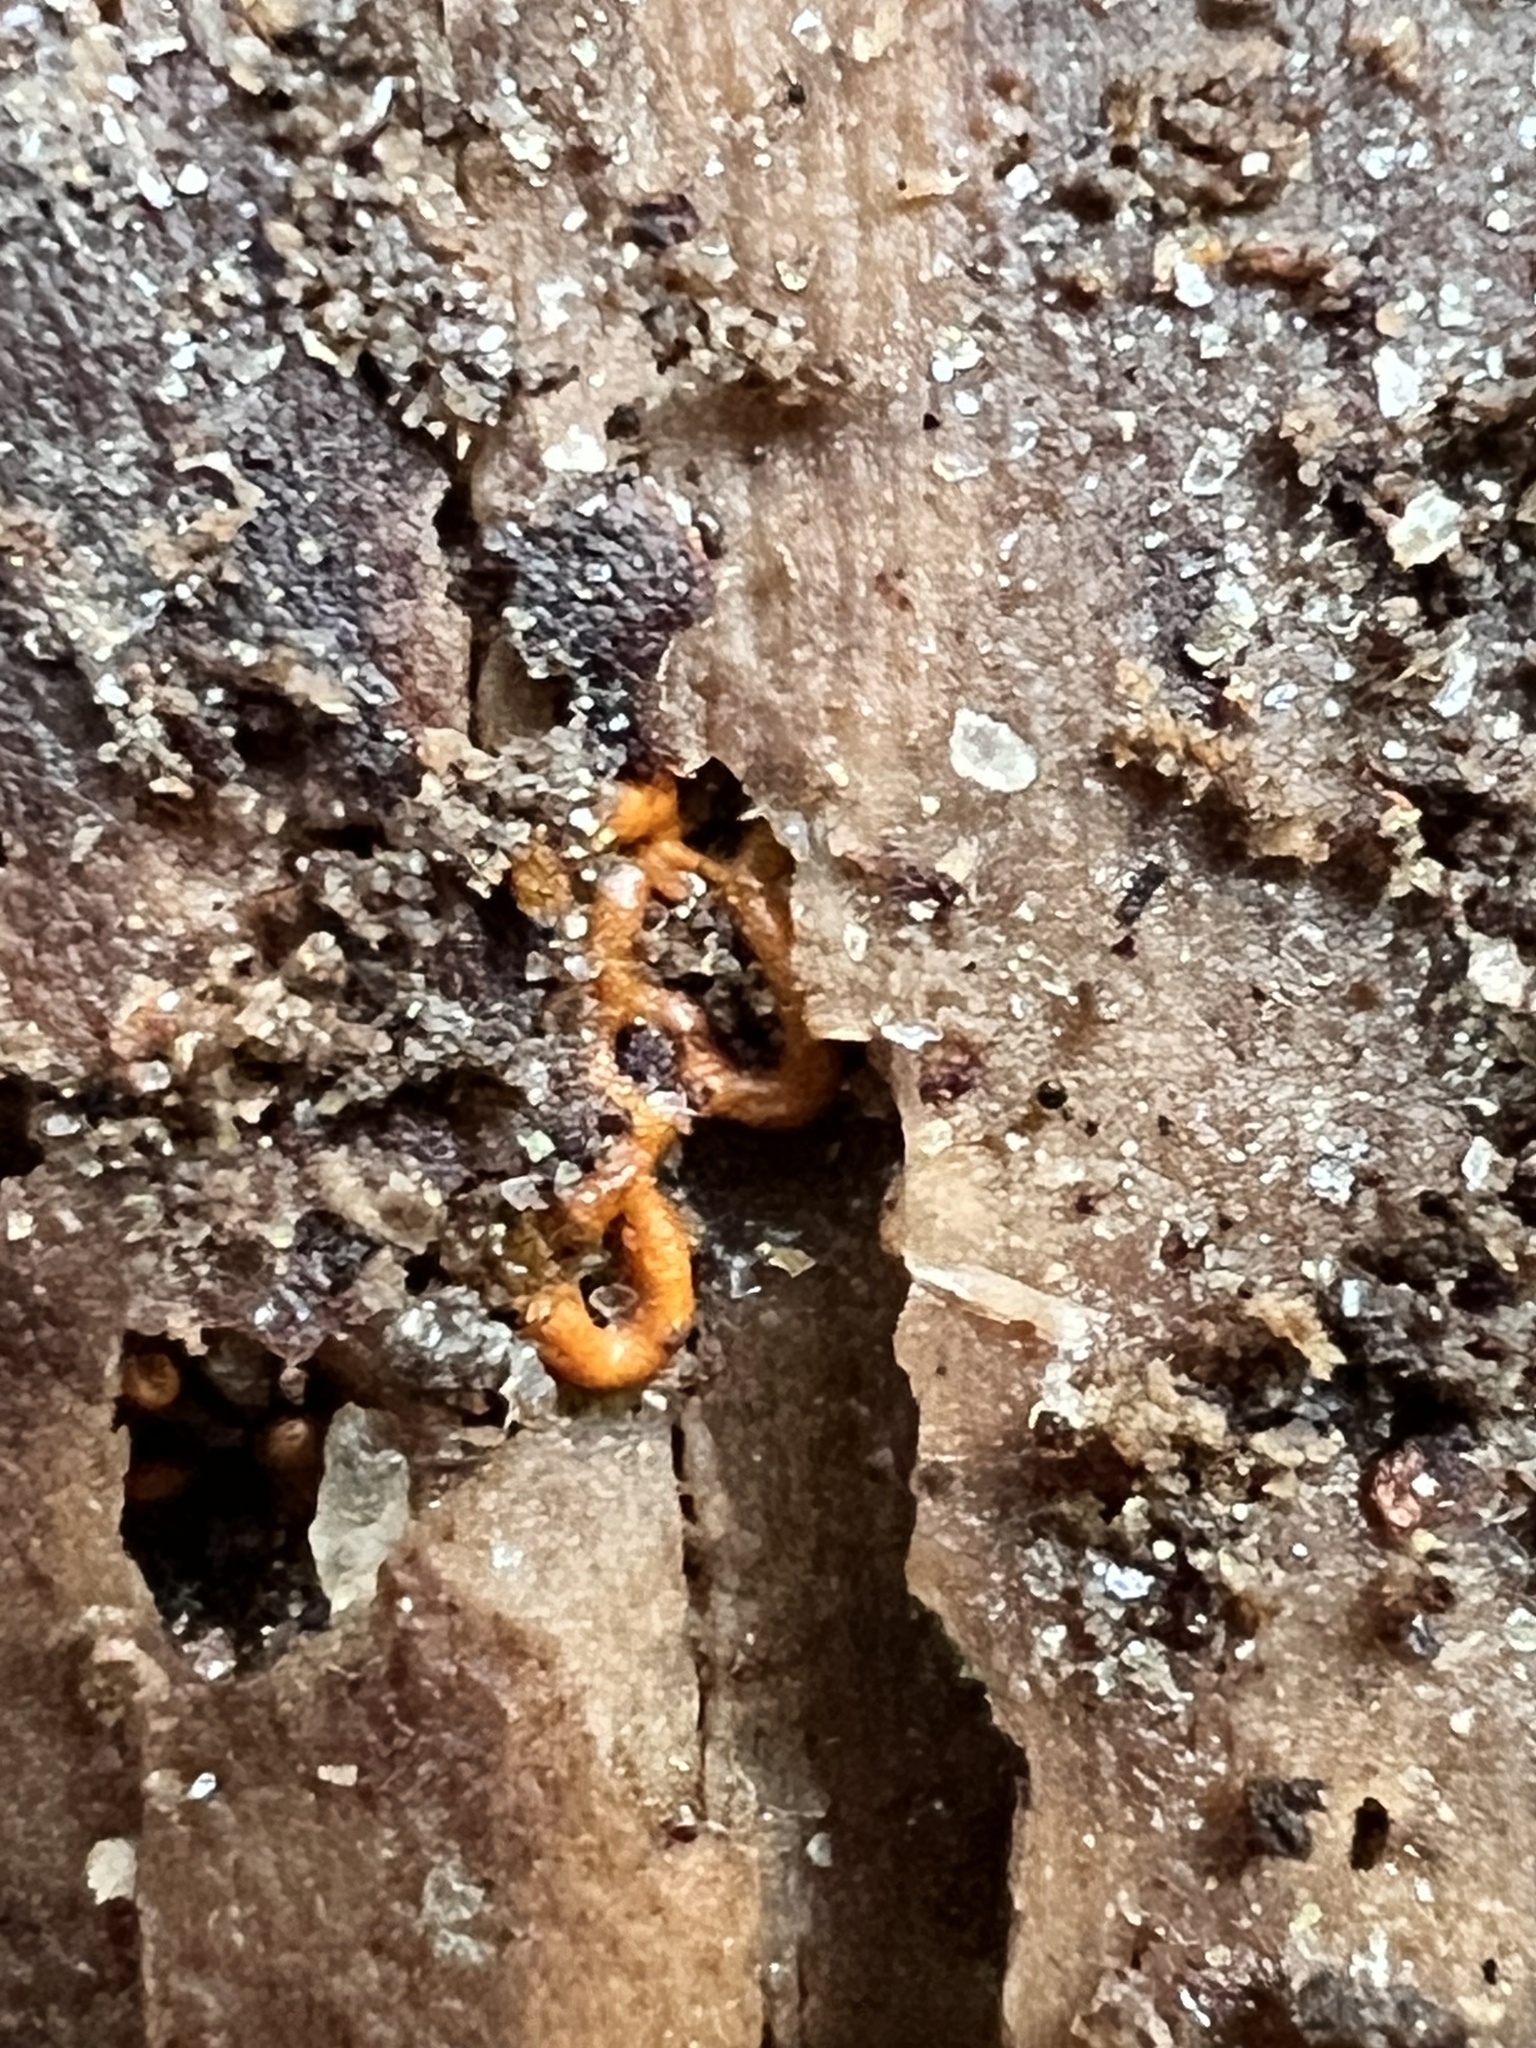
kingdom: Protozoa
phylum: Mycetozoa
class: Myxomycetes
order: Trichiales
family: Arcyriaceae
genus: Hemitrichia
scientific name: Hemitrichia serpula
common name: Pretzel slime mold
